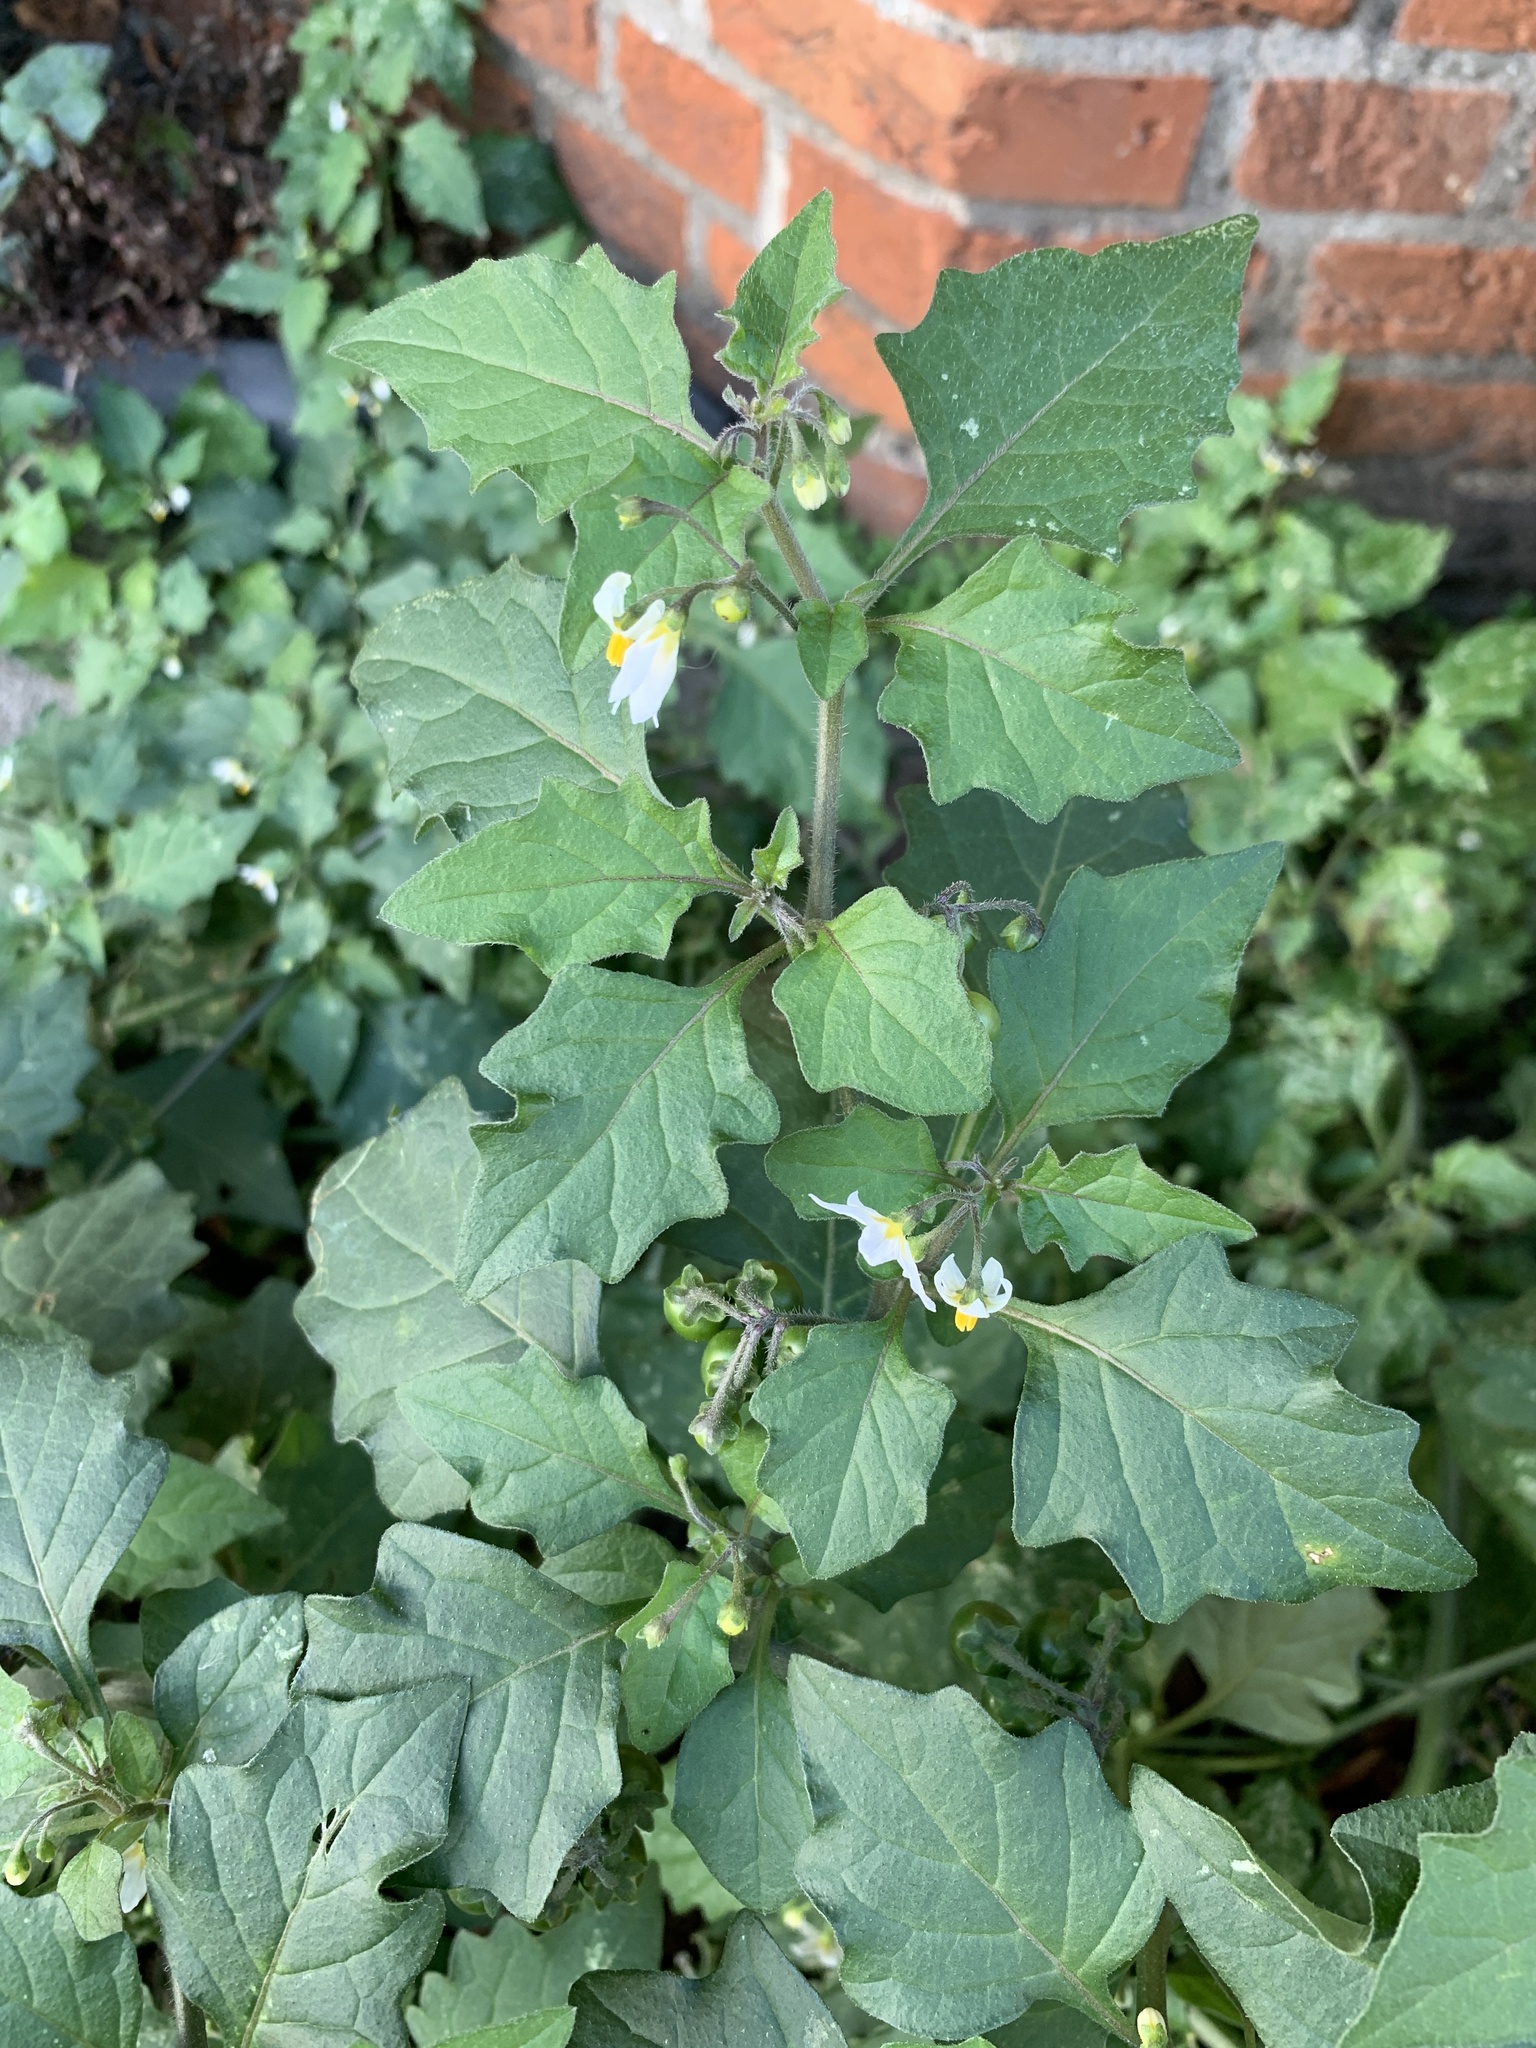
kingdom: Plantae
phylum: Tracheophyta
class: Magnoliopsida
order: Solanales
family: Solanaceae
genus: Solanum
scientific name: Solanum nigrum
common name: Black nightshade
